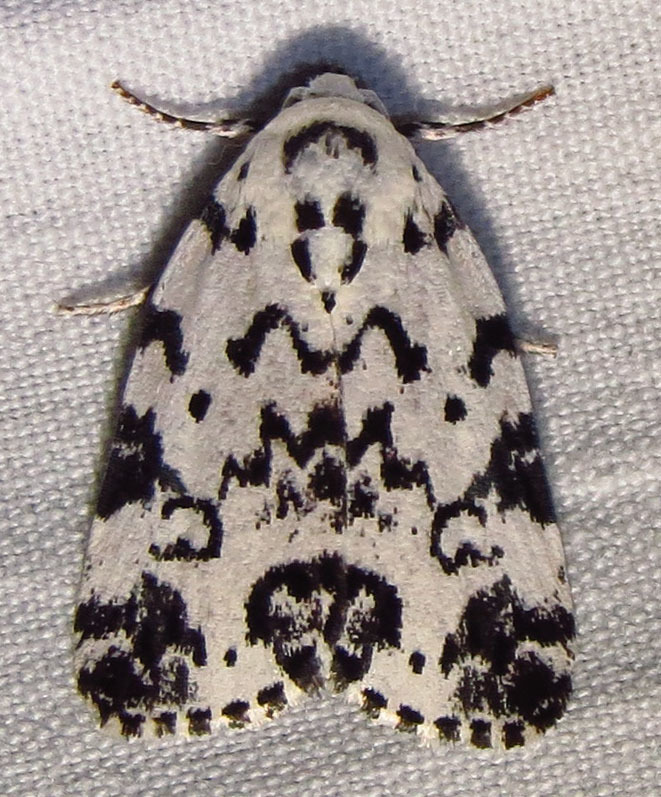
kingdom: Animalia
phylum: Arthropoda
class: Insecta
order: Lepidoptera
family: Noctuidae
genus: Polygrammate
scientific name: Polygrammate hebraeicum
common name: Hebrew moth
